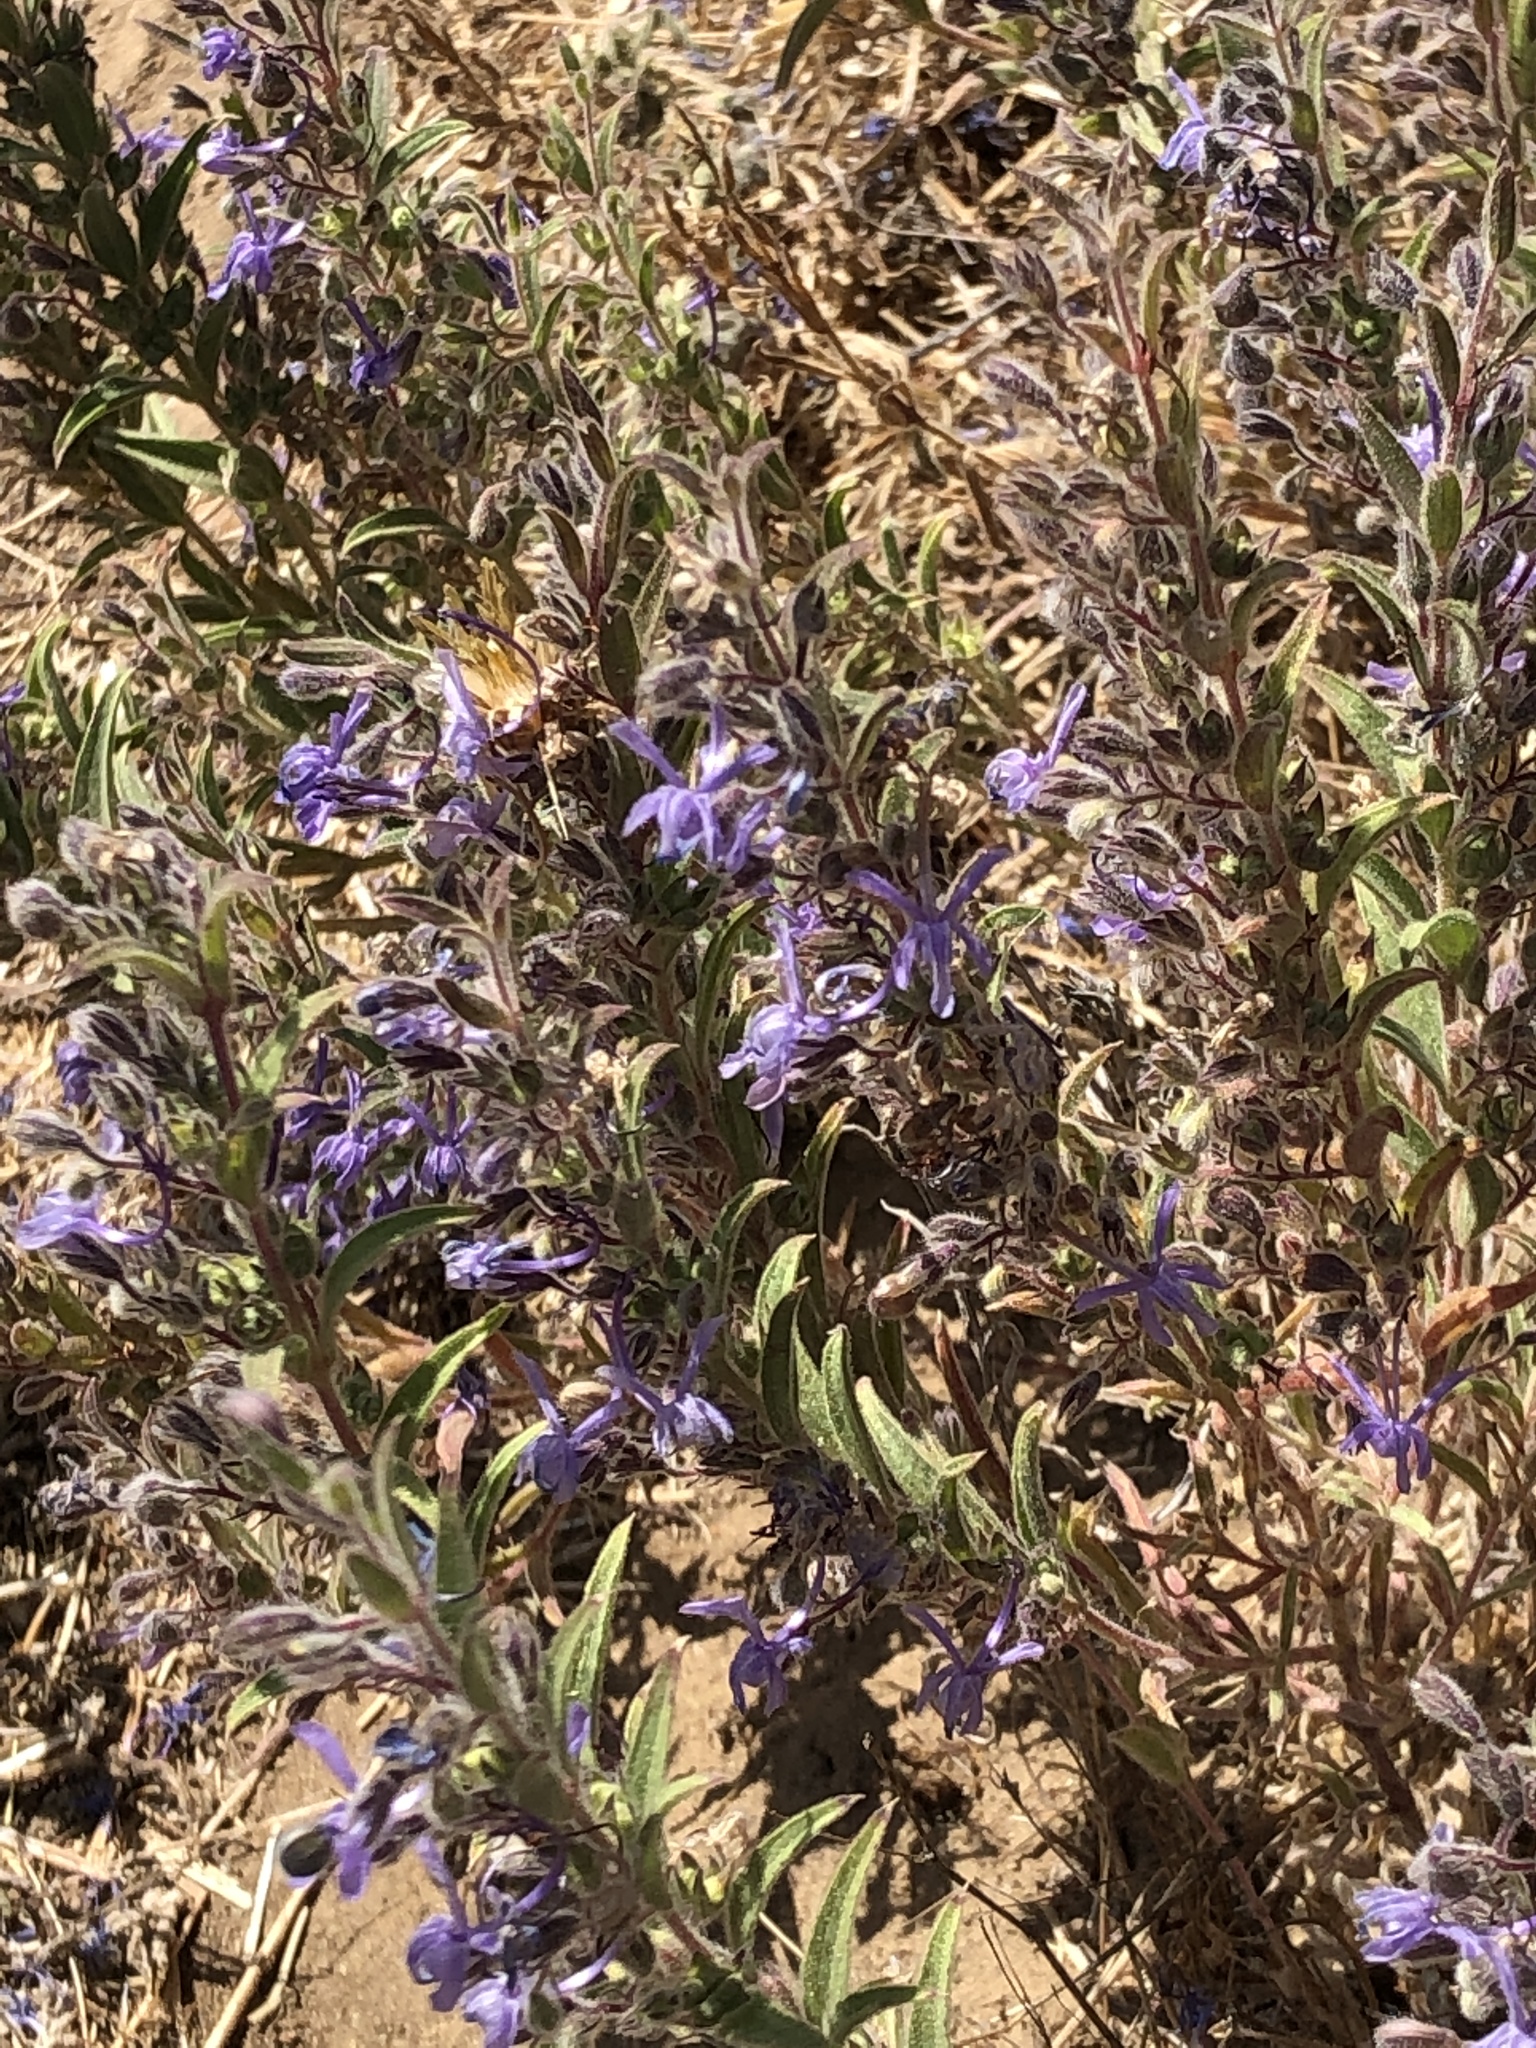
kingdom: Plantae
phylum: Tracheophyta
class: Magnoliopsida
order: Lamiales
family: Lamiaceae
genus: Trichostema
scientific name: Trichostema lanceolatum
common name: Vinegar-weed
